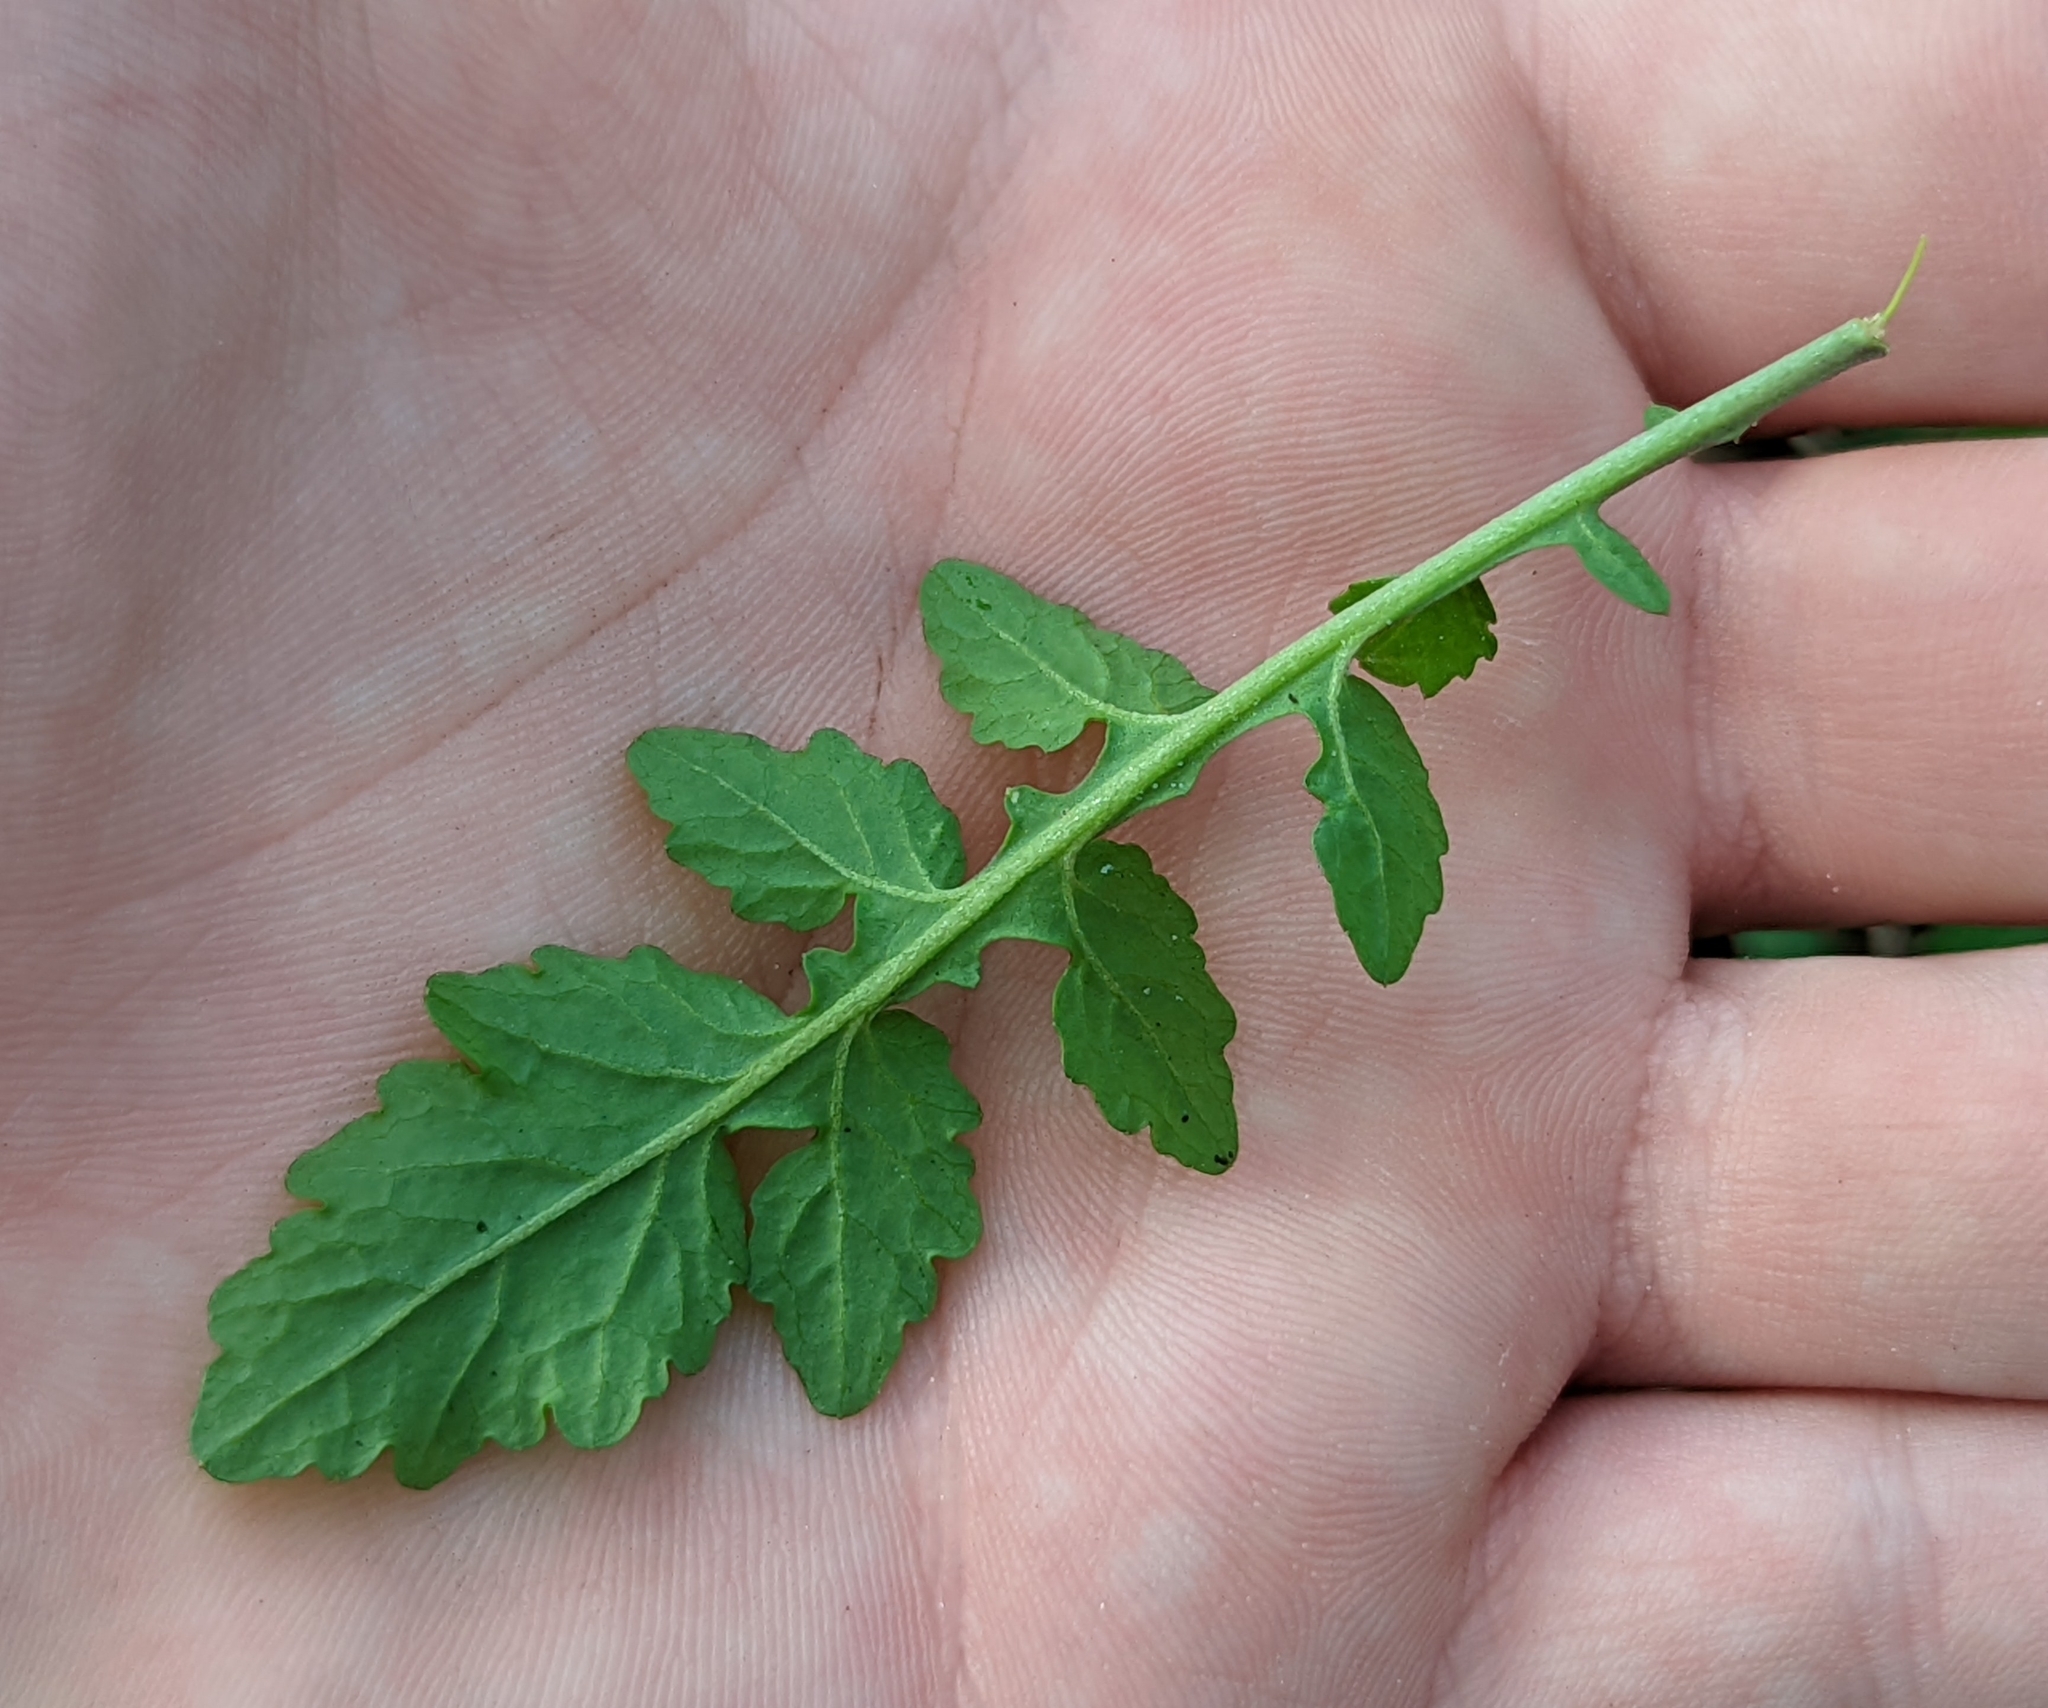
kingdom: Plantae
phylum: Tracheophyta
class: Magnoliopsida
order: Brassicales
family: Brassicaceae
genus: Rorippa
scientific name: Rorippa palustris
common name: Marsh yellow-cress
